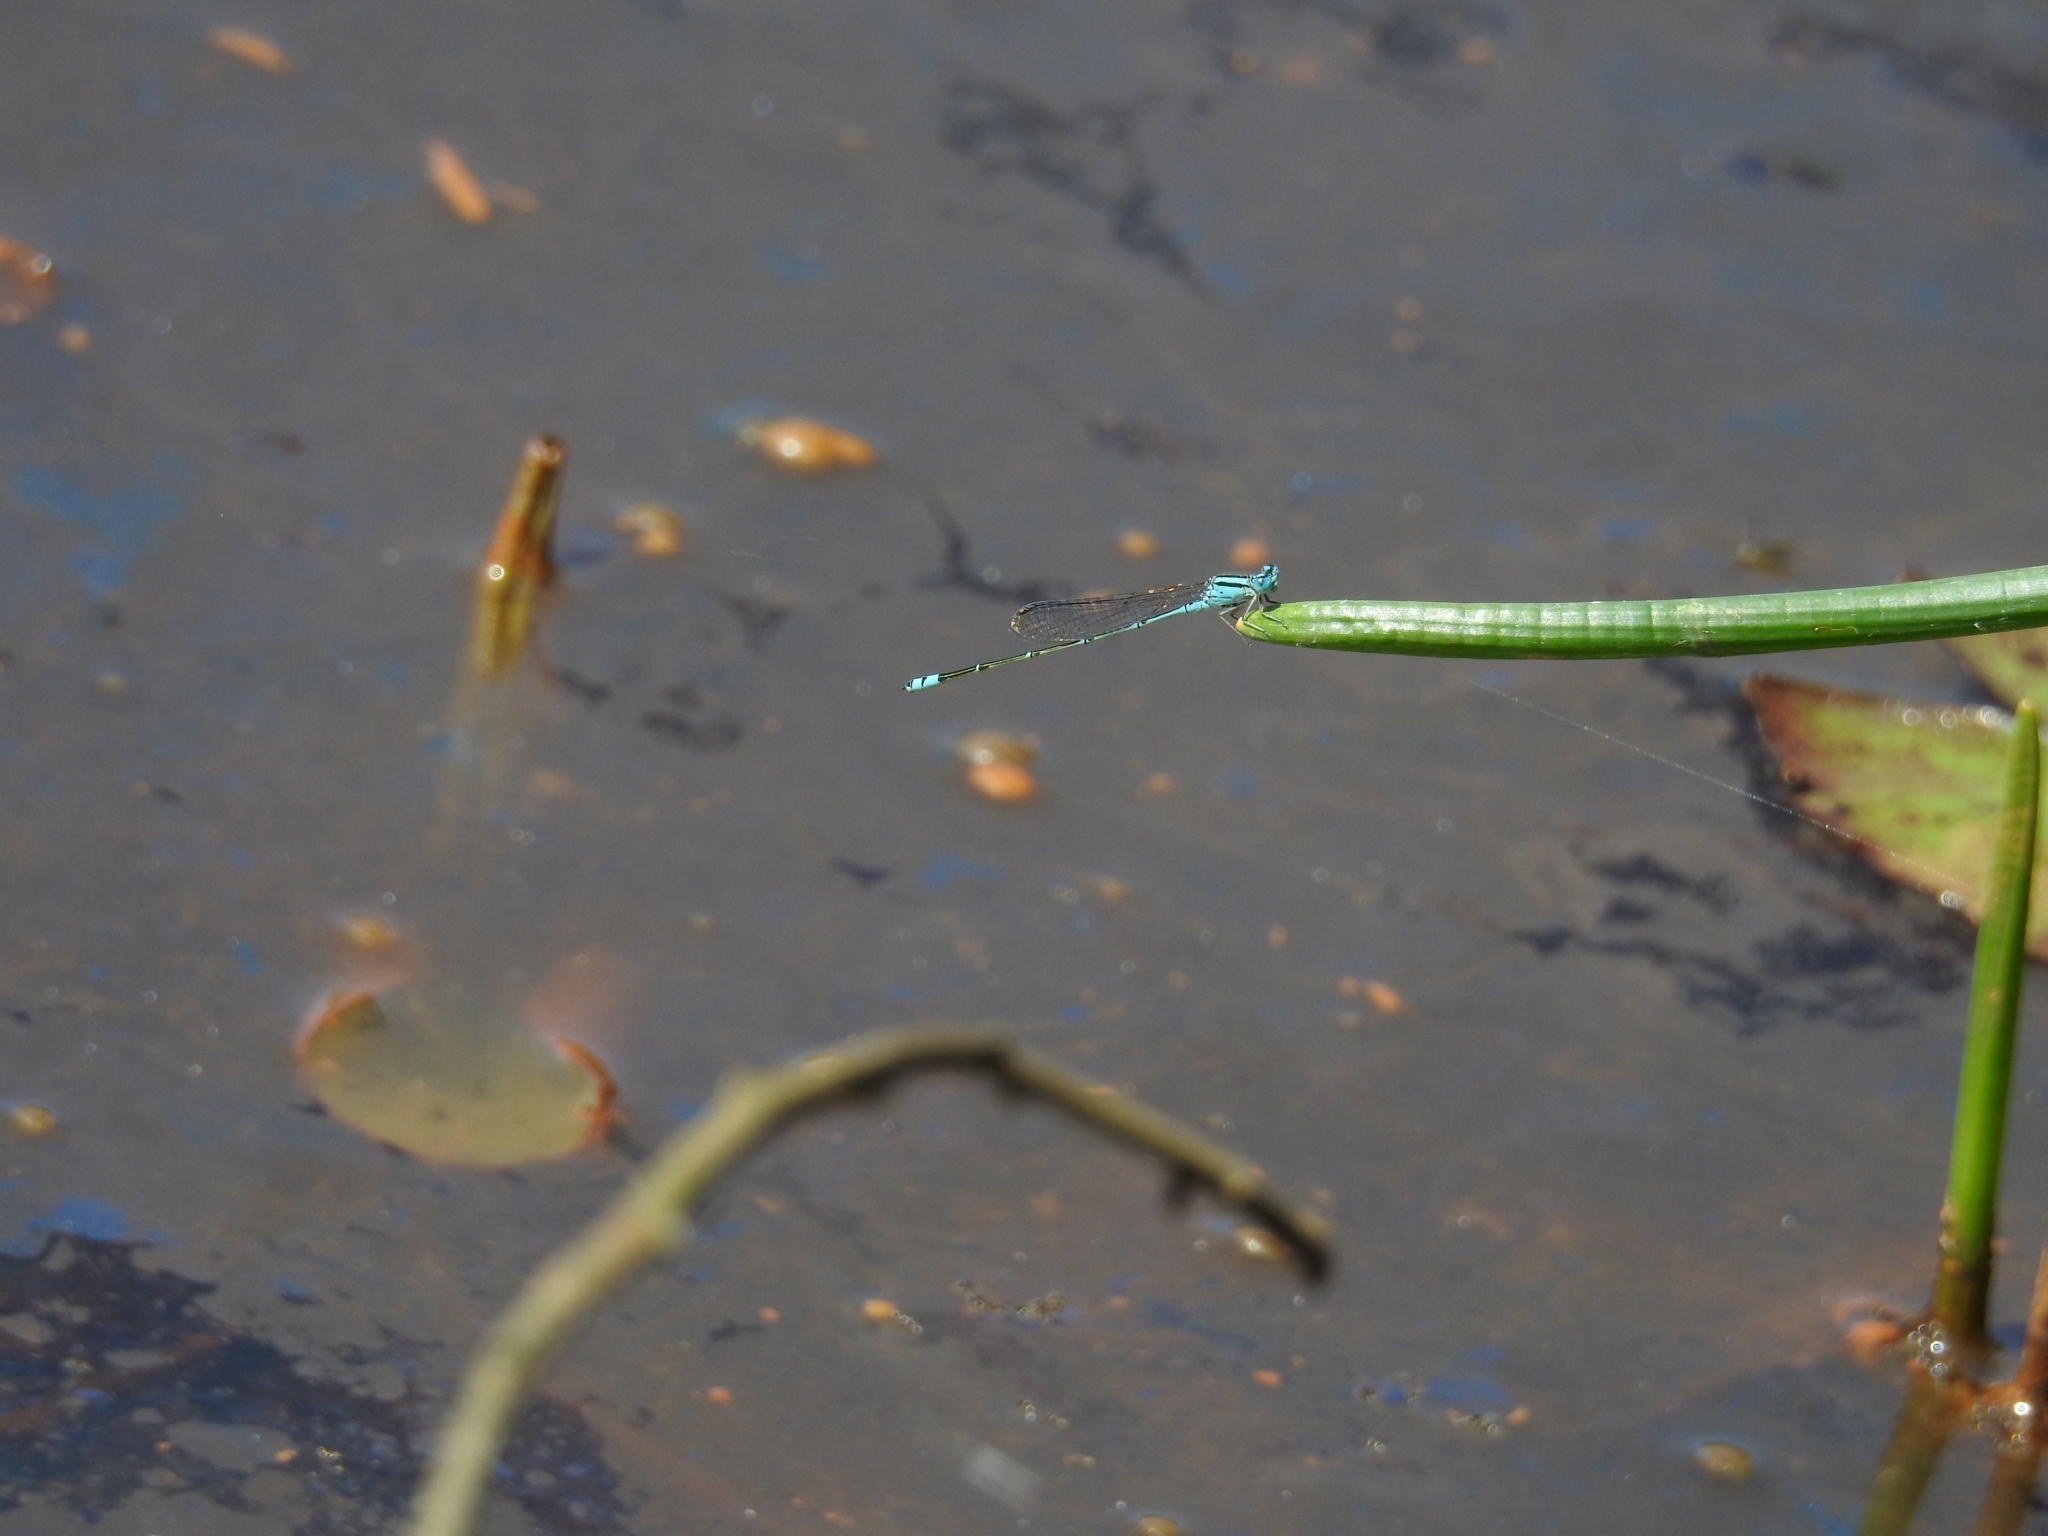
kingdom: Animalia
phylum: Arthropoda
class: Insecta
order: Odonata
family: Coenagrionidae
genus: Pseudagrion
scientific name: Pseudagrion microcephalum
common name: Blue riverdamsel
